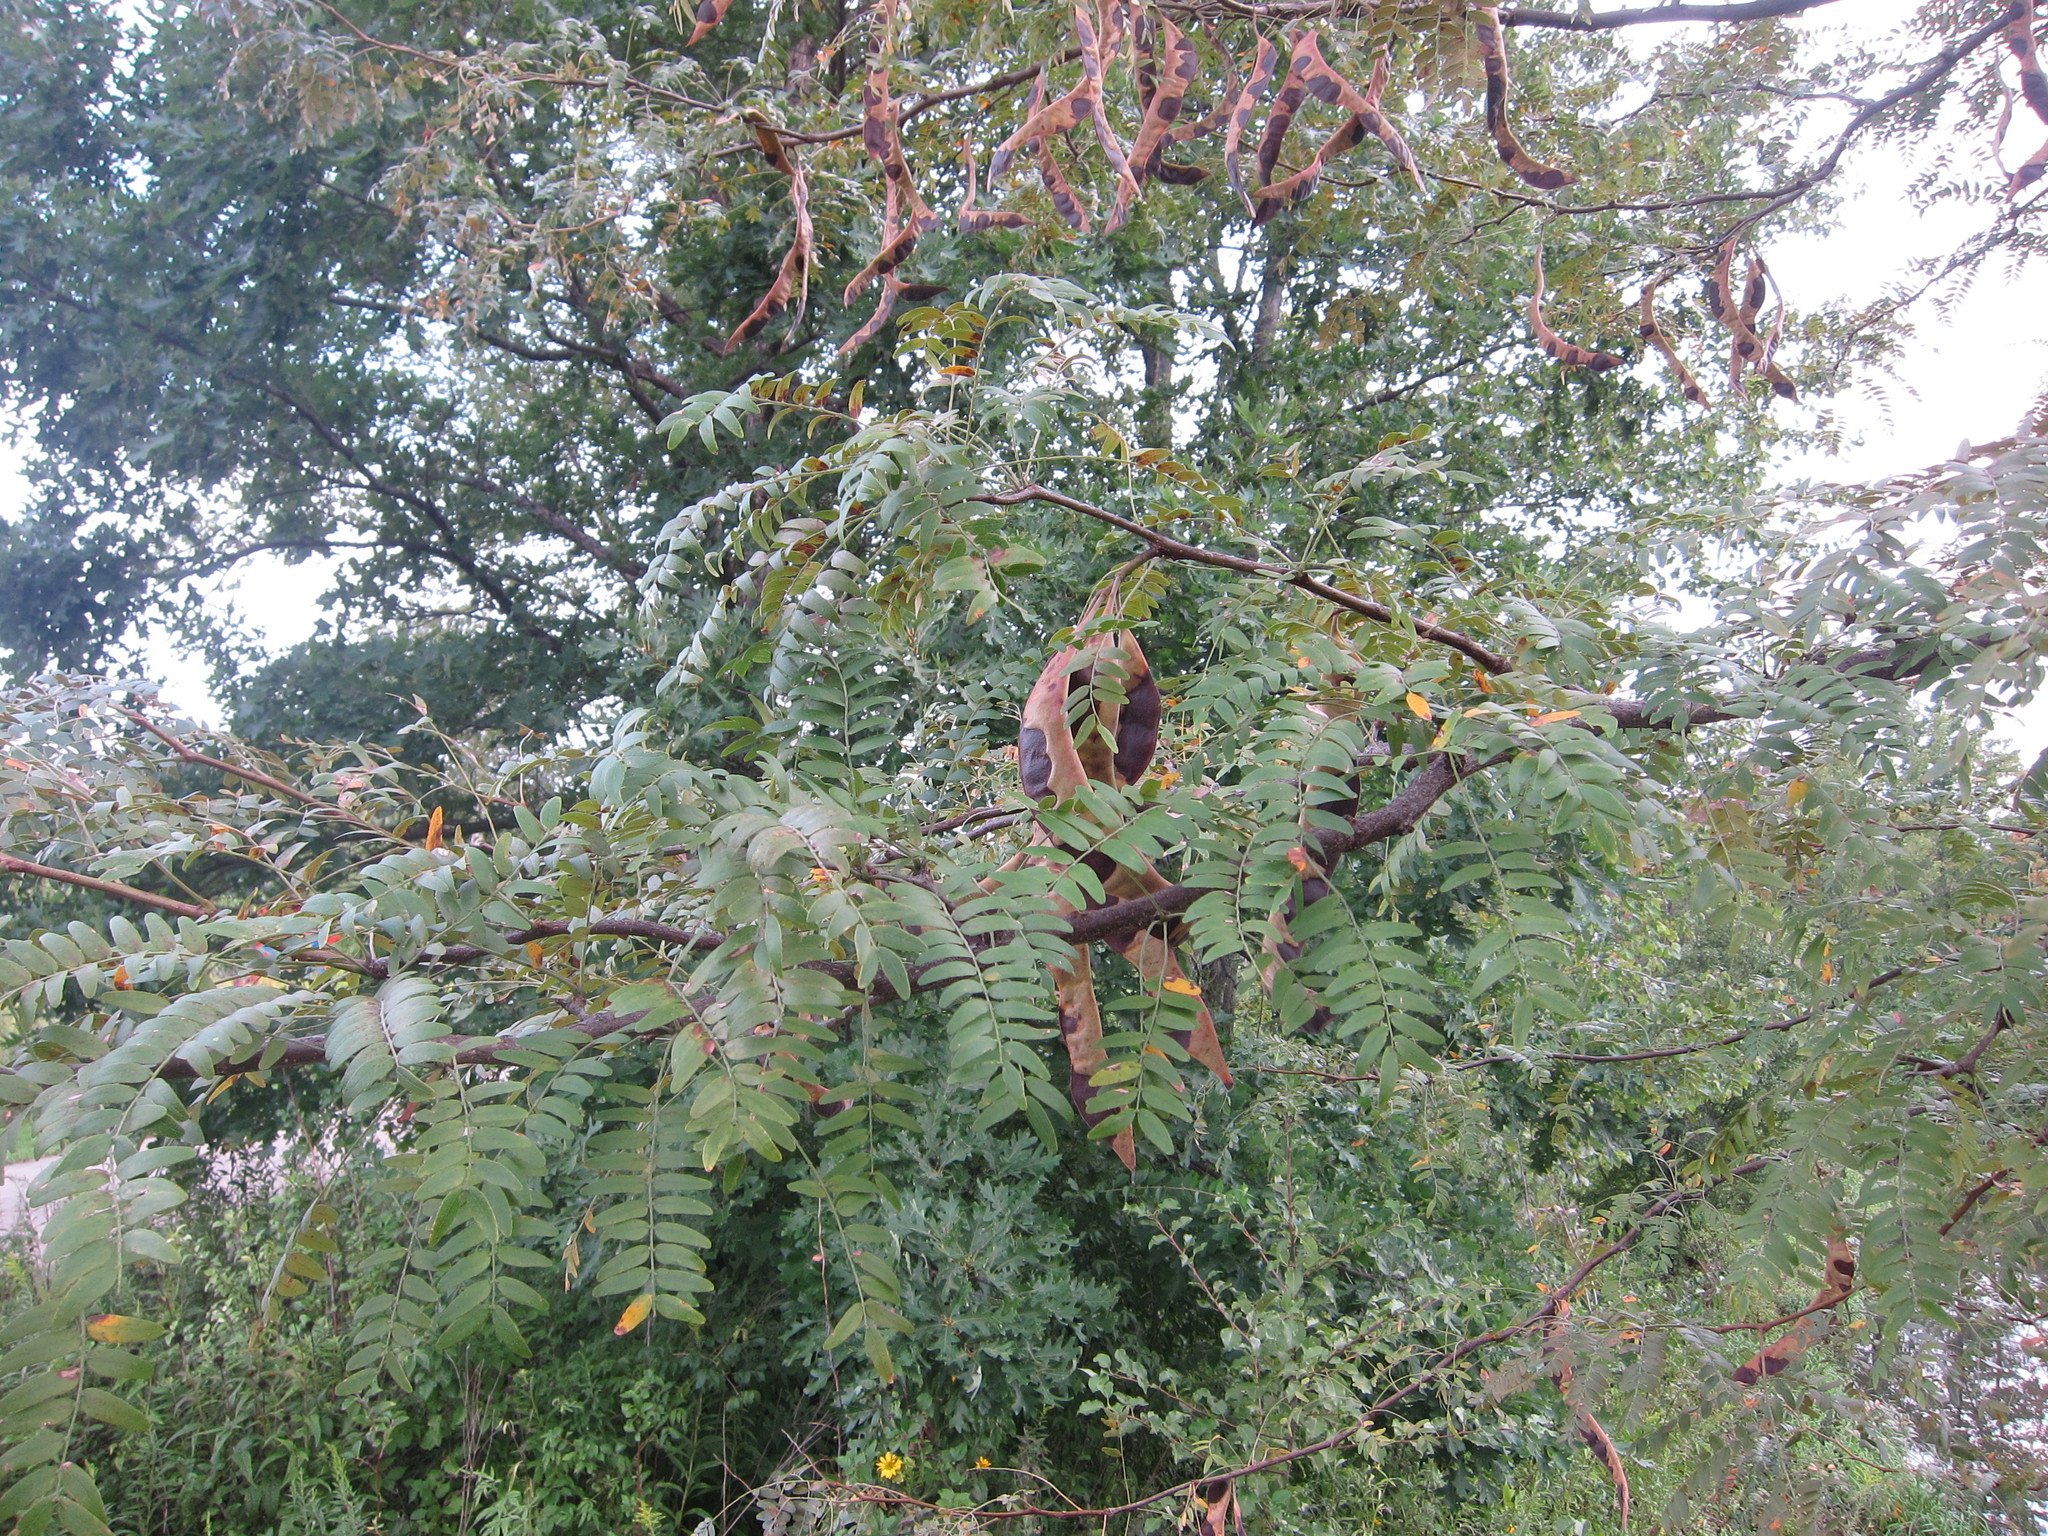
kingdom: Plantae
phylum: Tracheophyta
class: Magnoliopsida
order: Fabales
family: Fabaceae
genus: Gleditsia
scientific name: Gleditsia triacanthos
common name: Common honeylocust
